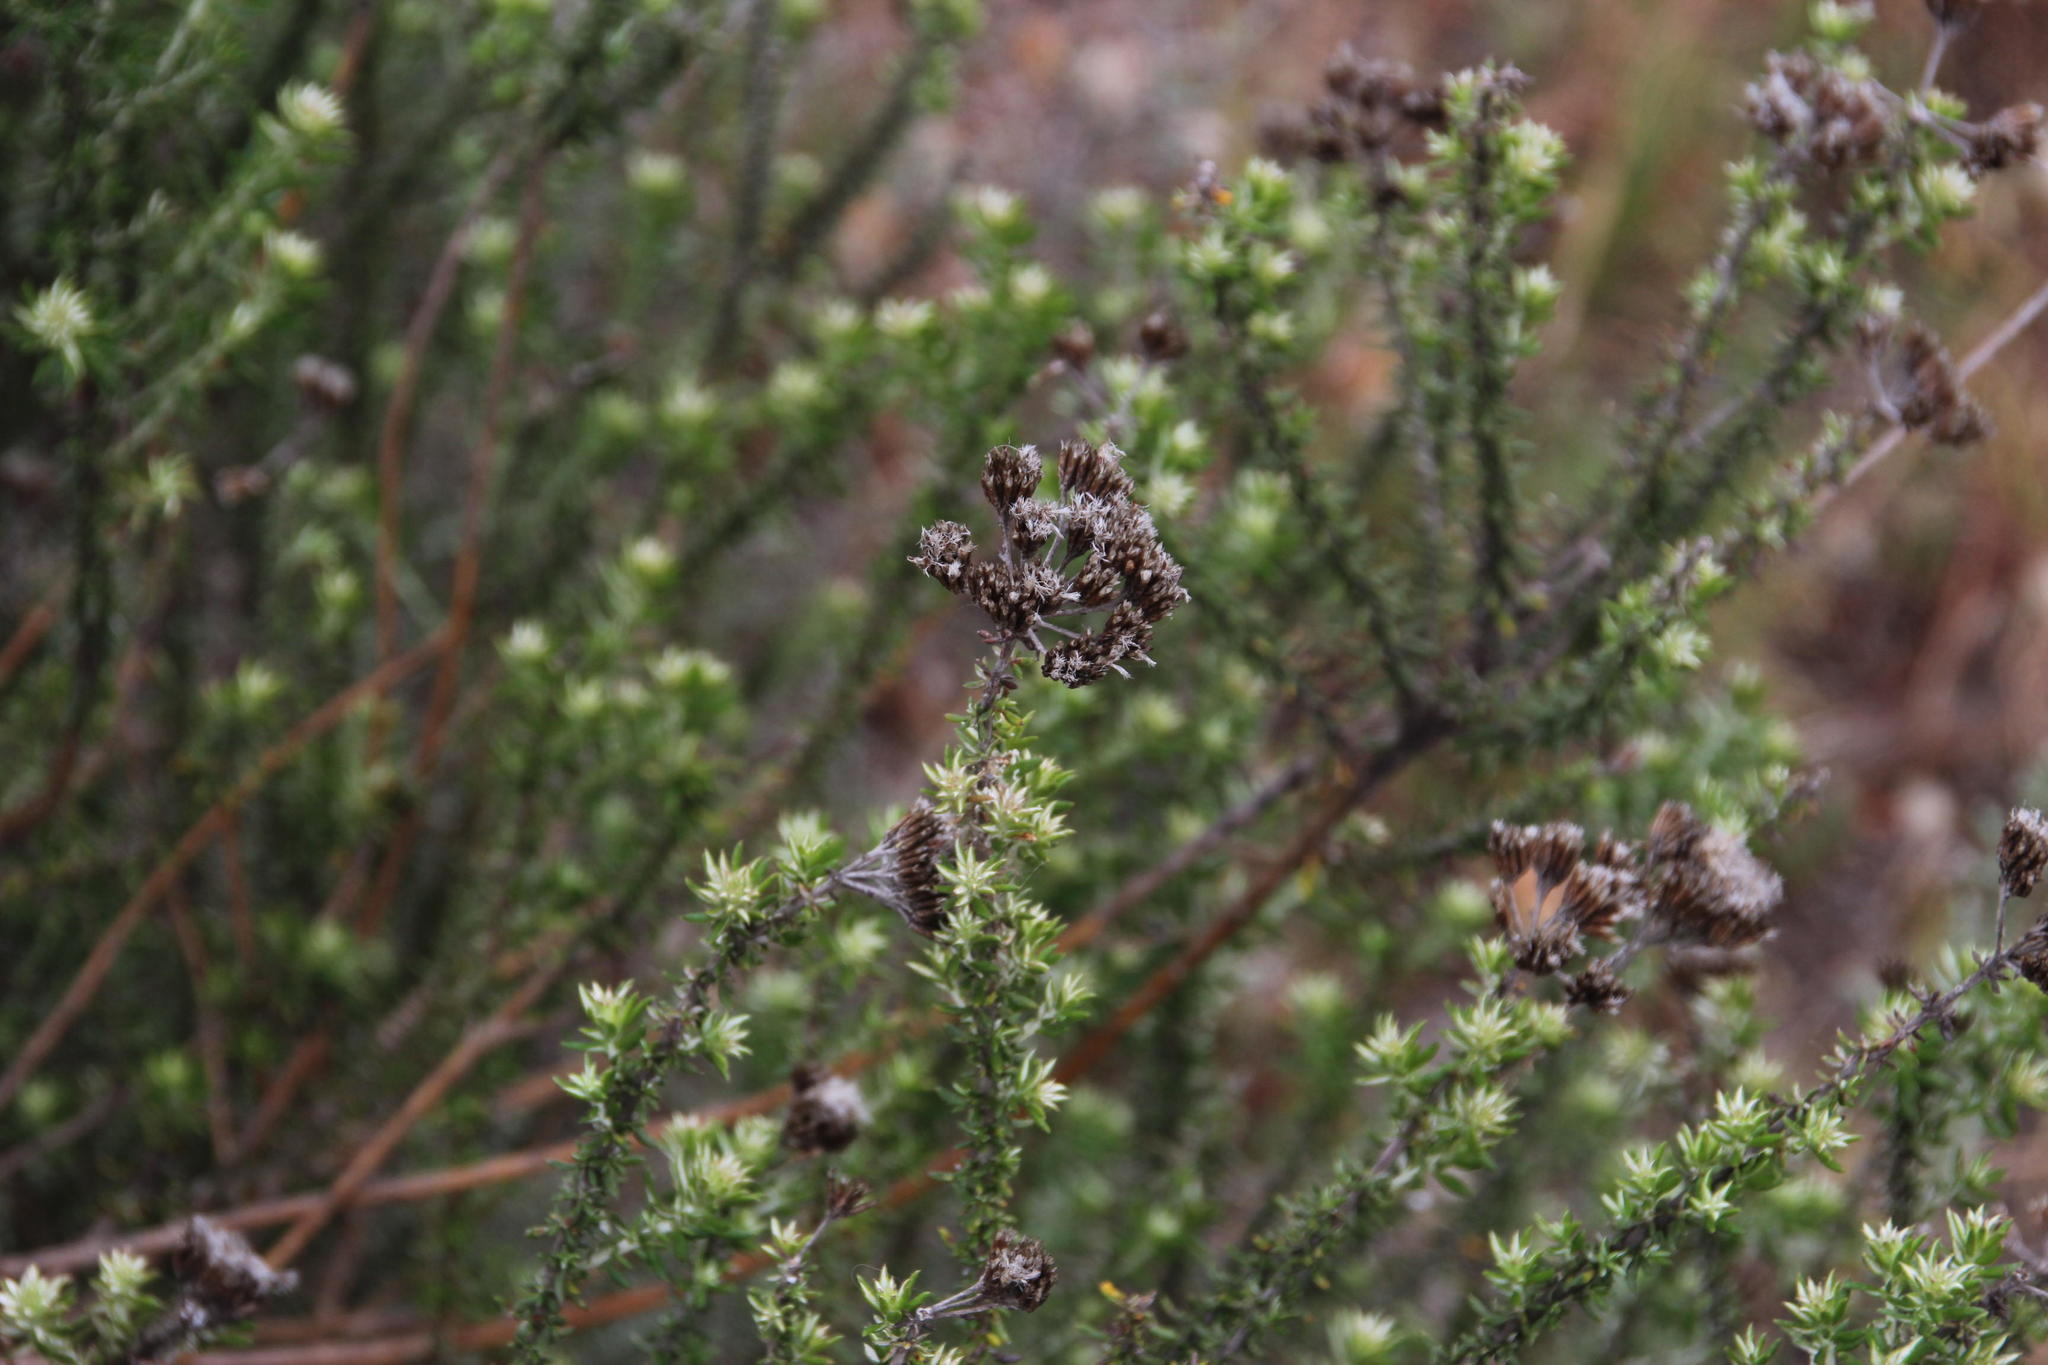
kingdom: Plantae
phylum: Tracheophyta
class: Magnoliopsida
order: Asterales
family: Asteraceae
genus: Metalasia
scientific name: Metalasia densa
